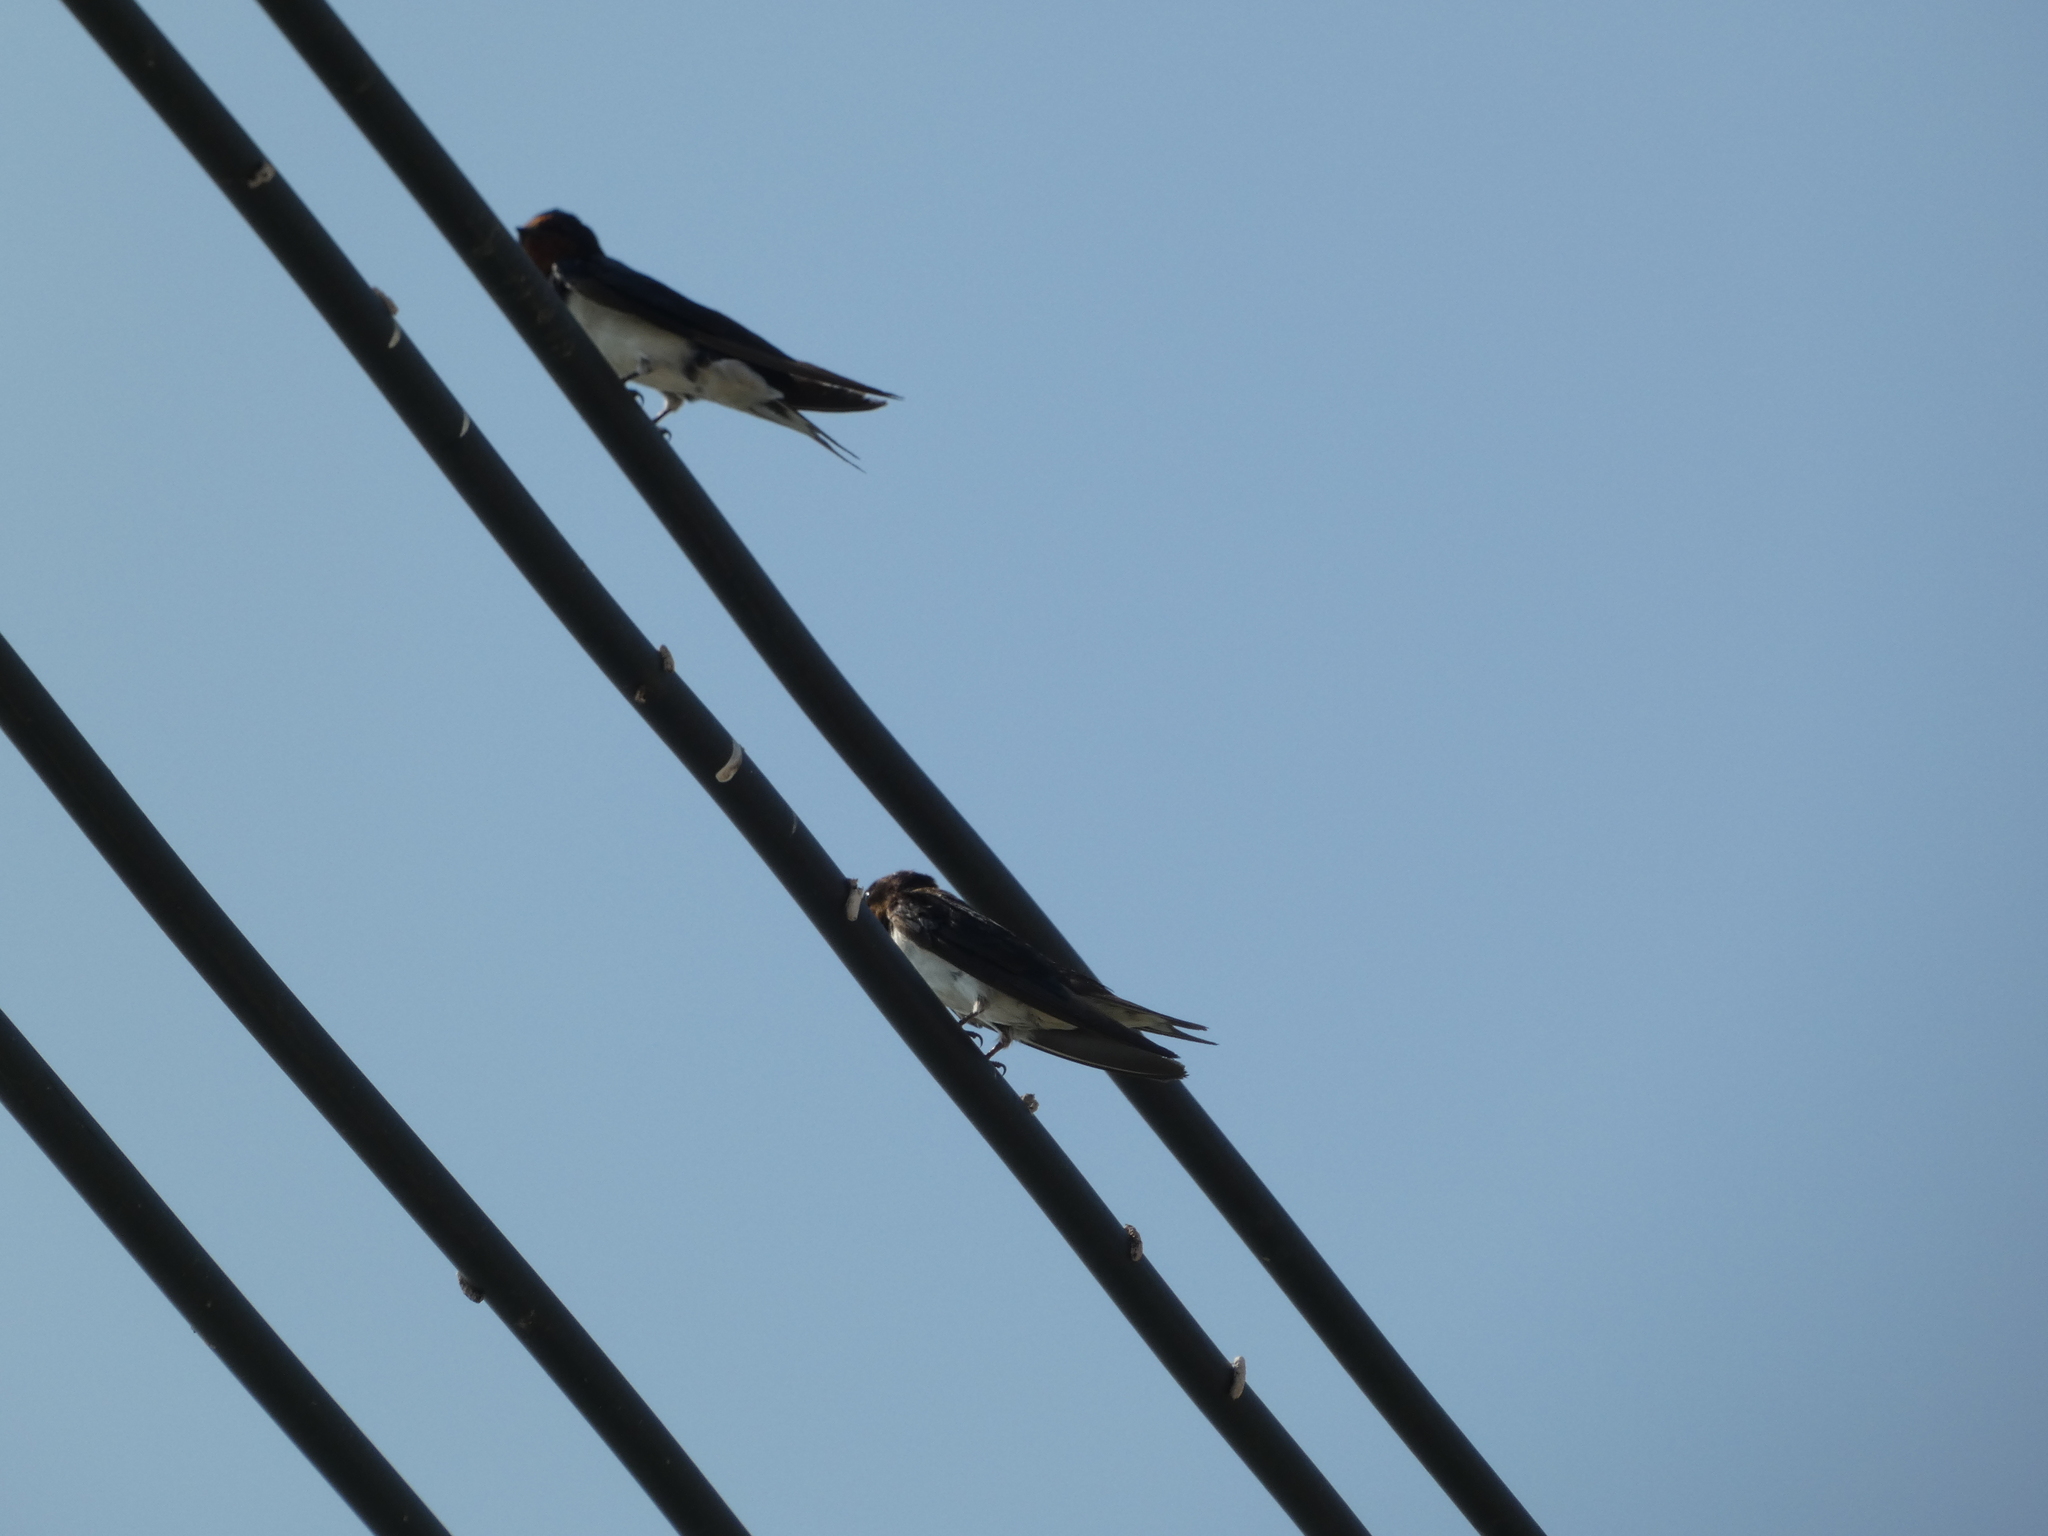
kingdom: Animalia
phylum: Chordata
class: Aves
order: Passeriformes
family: Hirundinidae
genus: Hirundo
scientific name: Hirundo rustica
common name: Barn swallow
